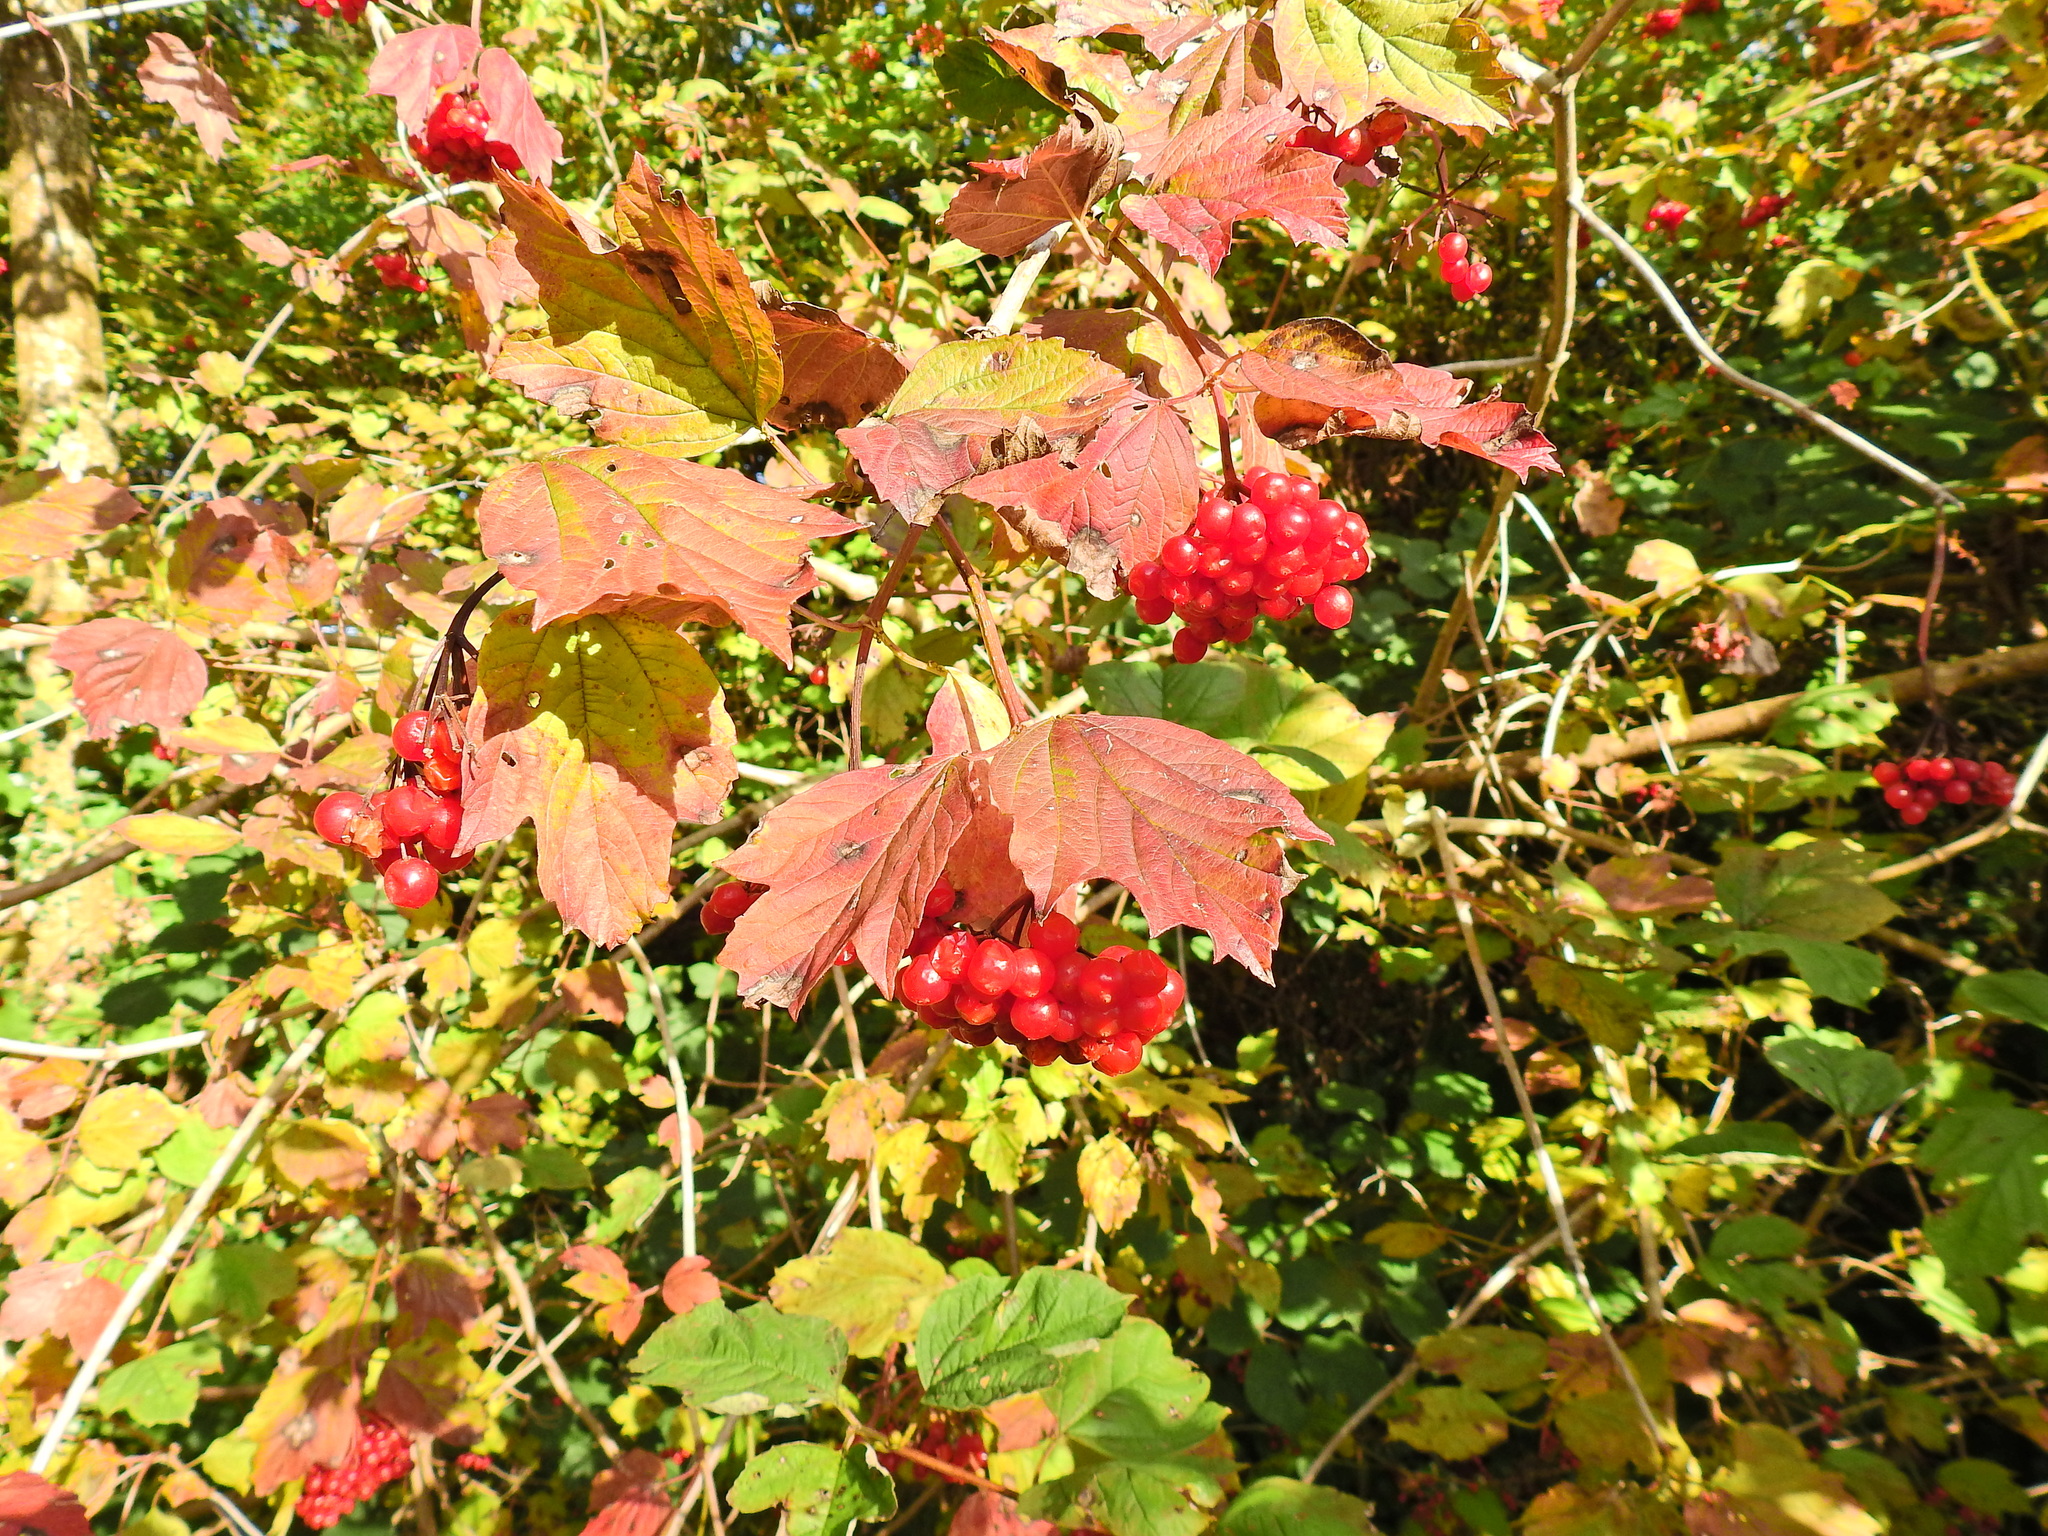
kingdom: Plantae
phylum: Tracheophyta
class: Magnoliopsida
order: Dipsacales
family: Viburnaceae
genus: Viburnum
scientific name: Viburnum opulus
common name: Guelder-rose
